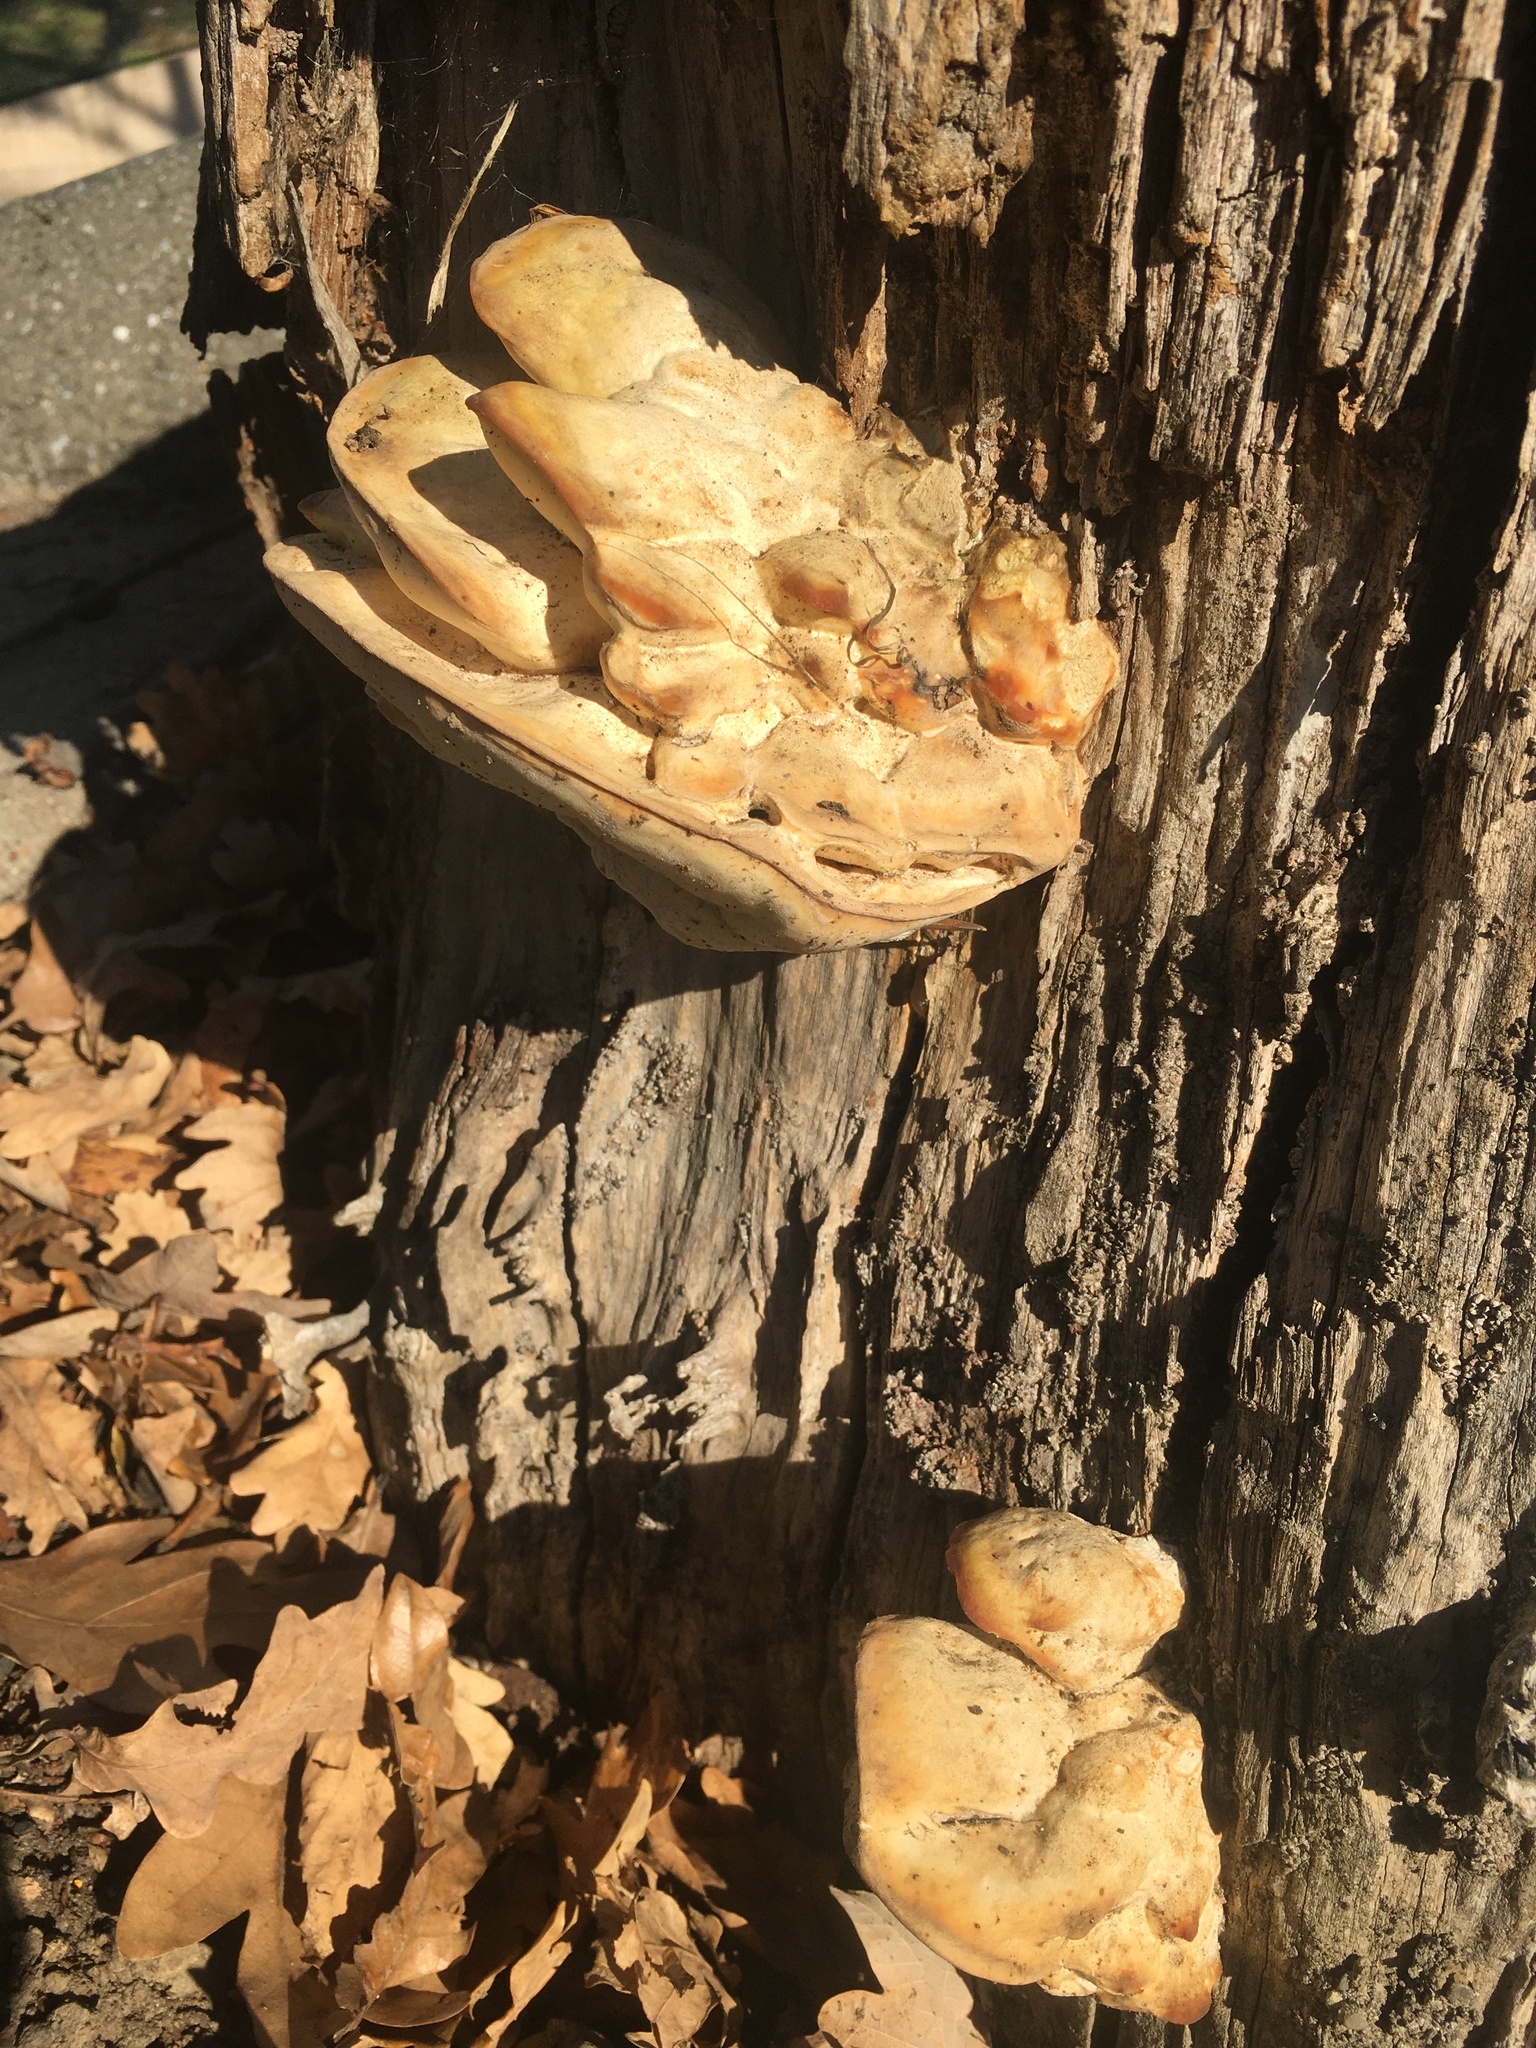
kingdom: Fungi
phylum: Basidiomycota
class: Agaricomycetes
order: Polyporales
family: Laetiporaceae
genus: Laetiporus
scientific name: Laetiporus gilbertsonii
